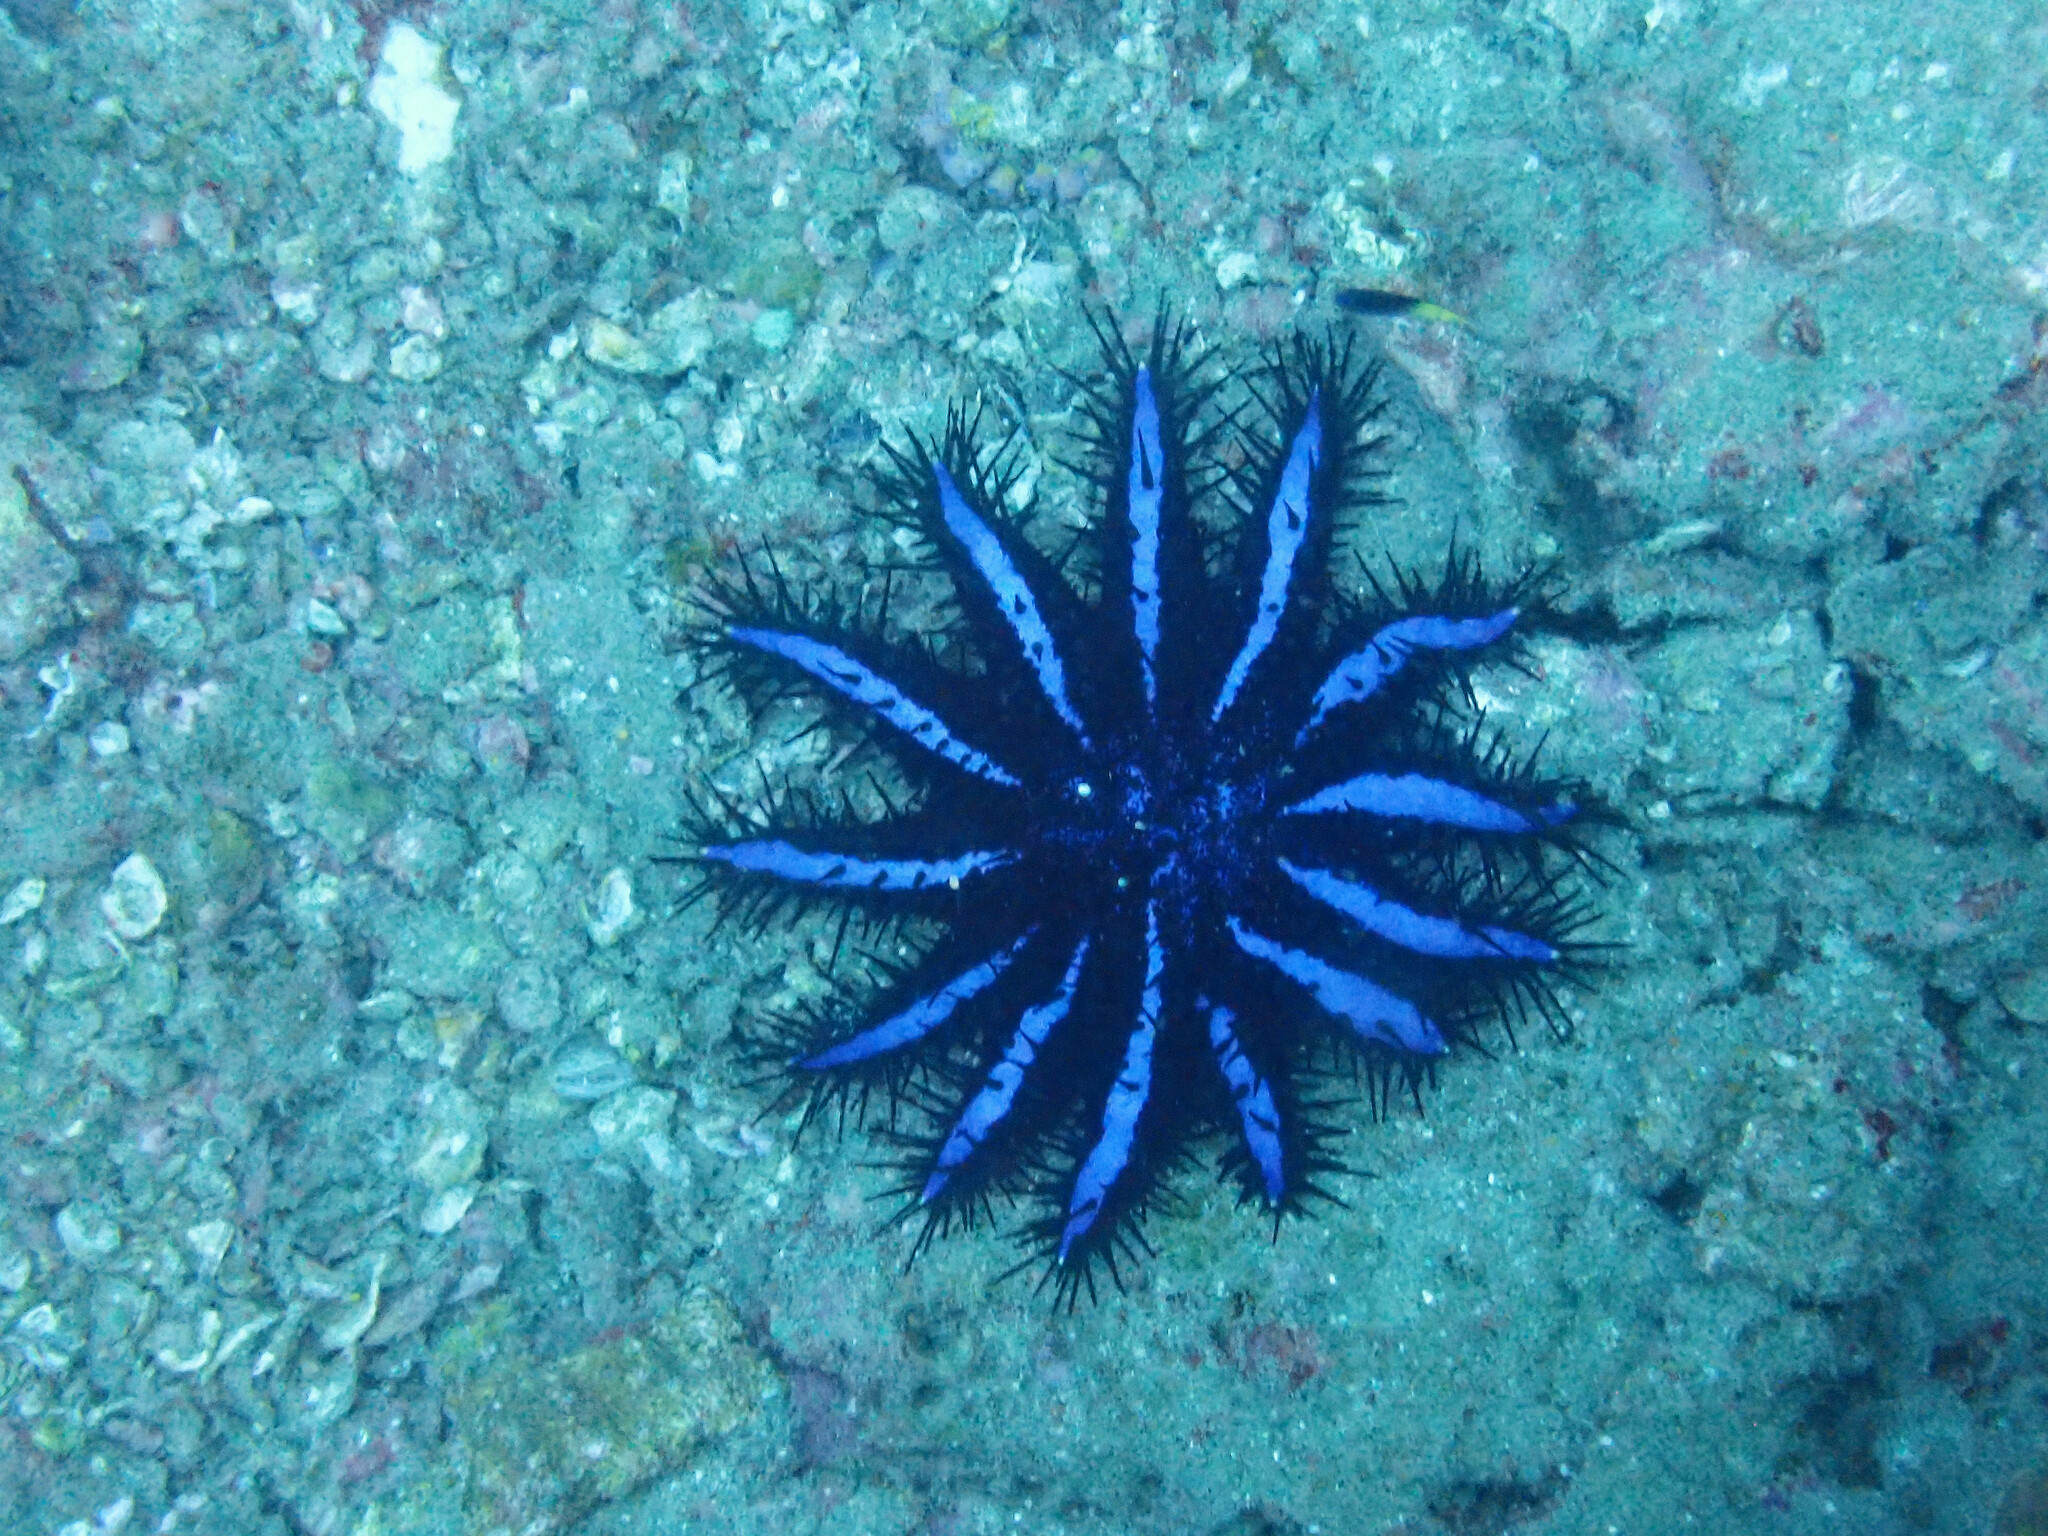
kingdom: Animalia
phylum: Echinodermata
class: Asteroidea
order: Valvatida
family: Acanthasteridae
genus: Acanthaster
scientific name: Acanthaster planci
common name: Crown-of-thorns
